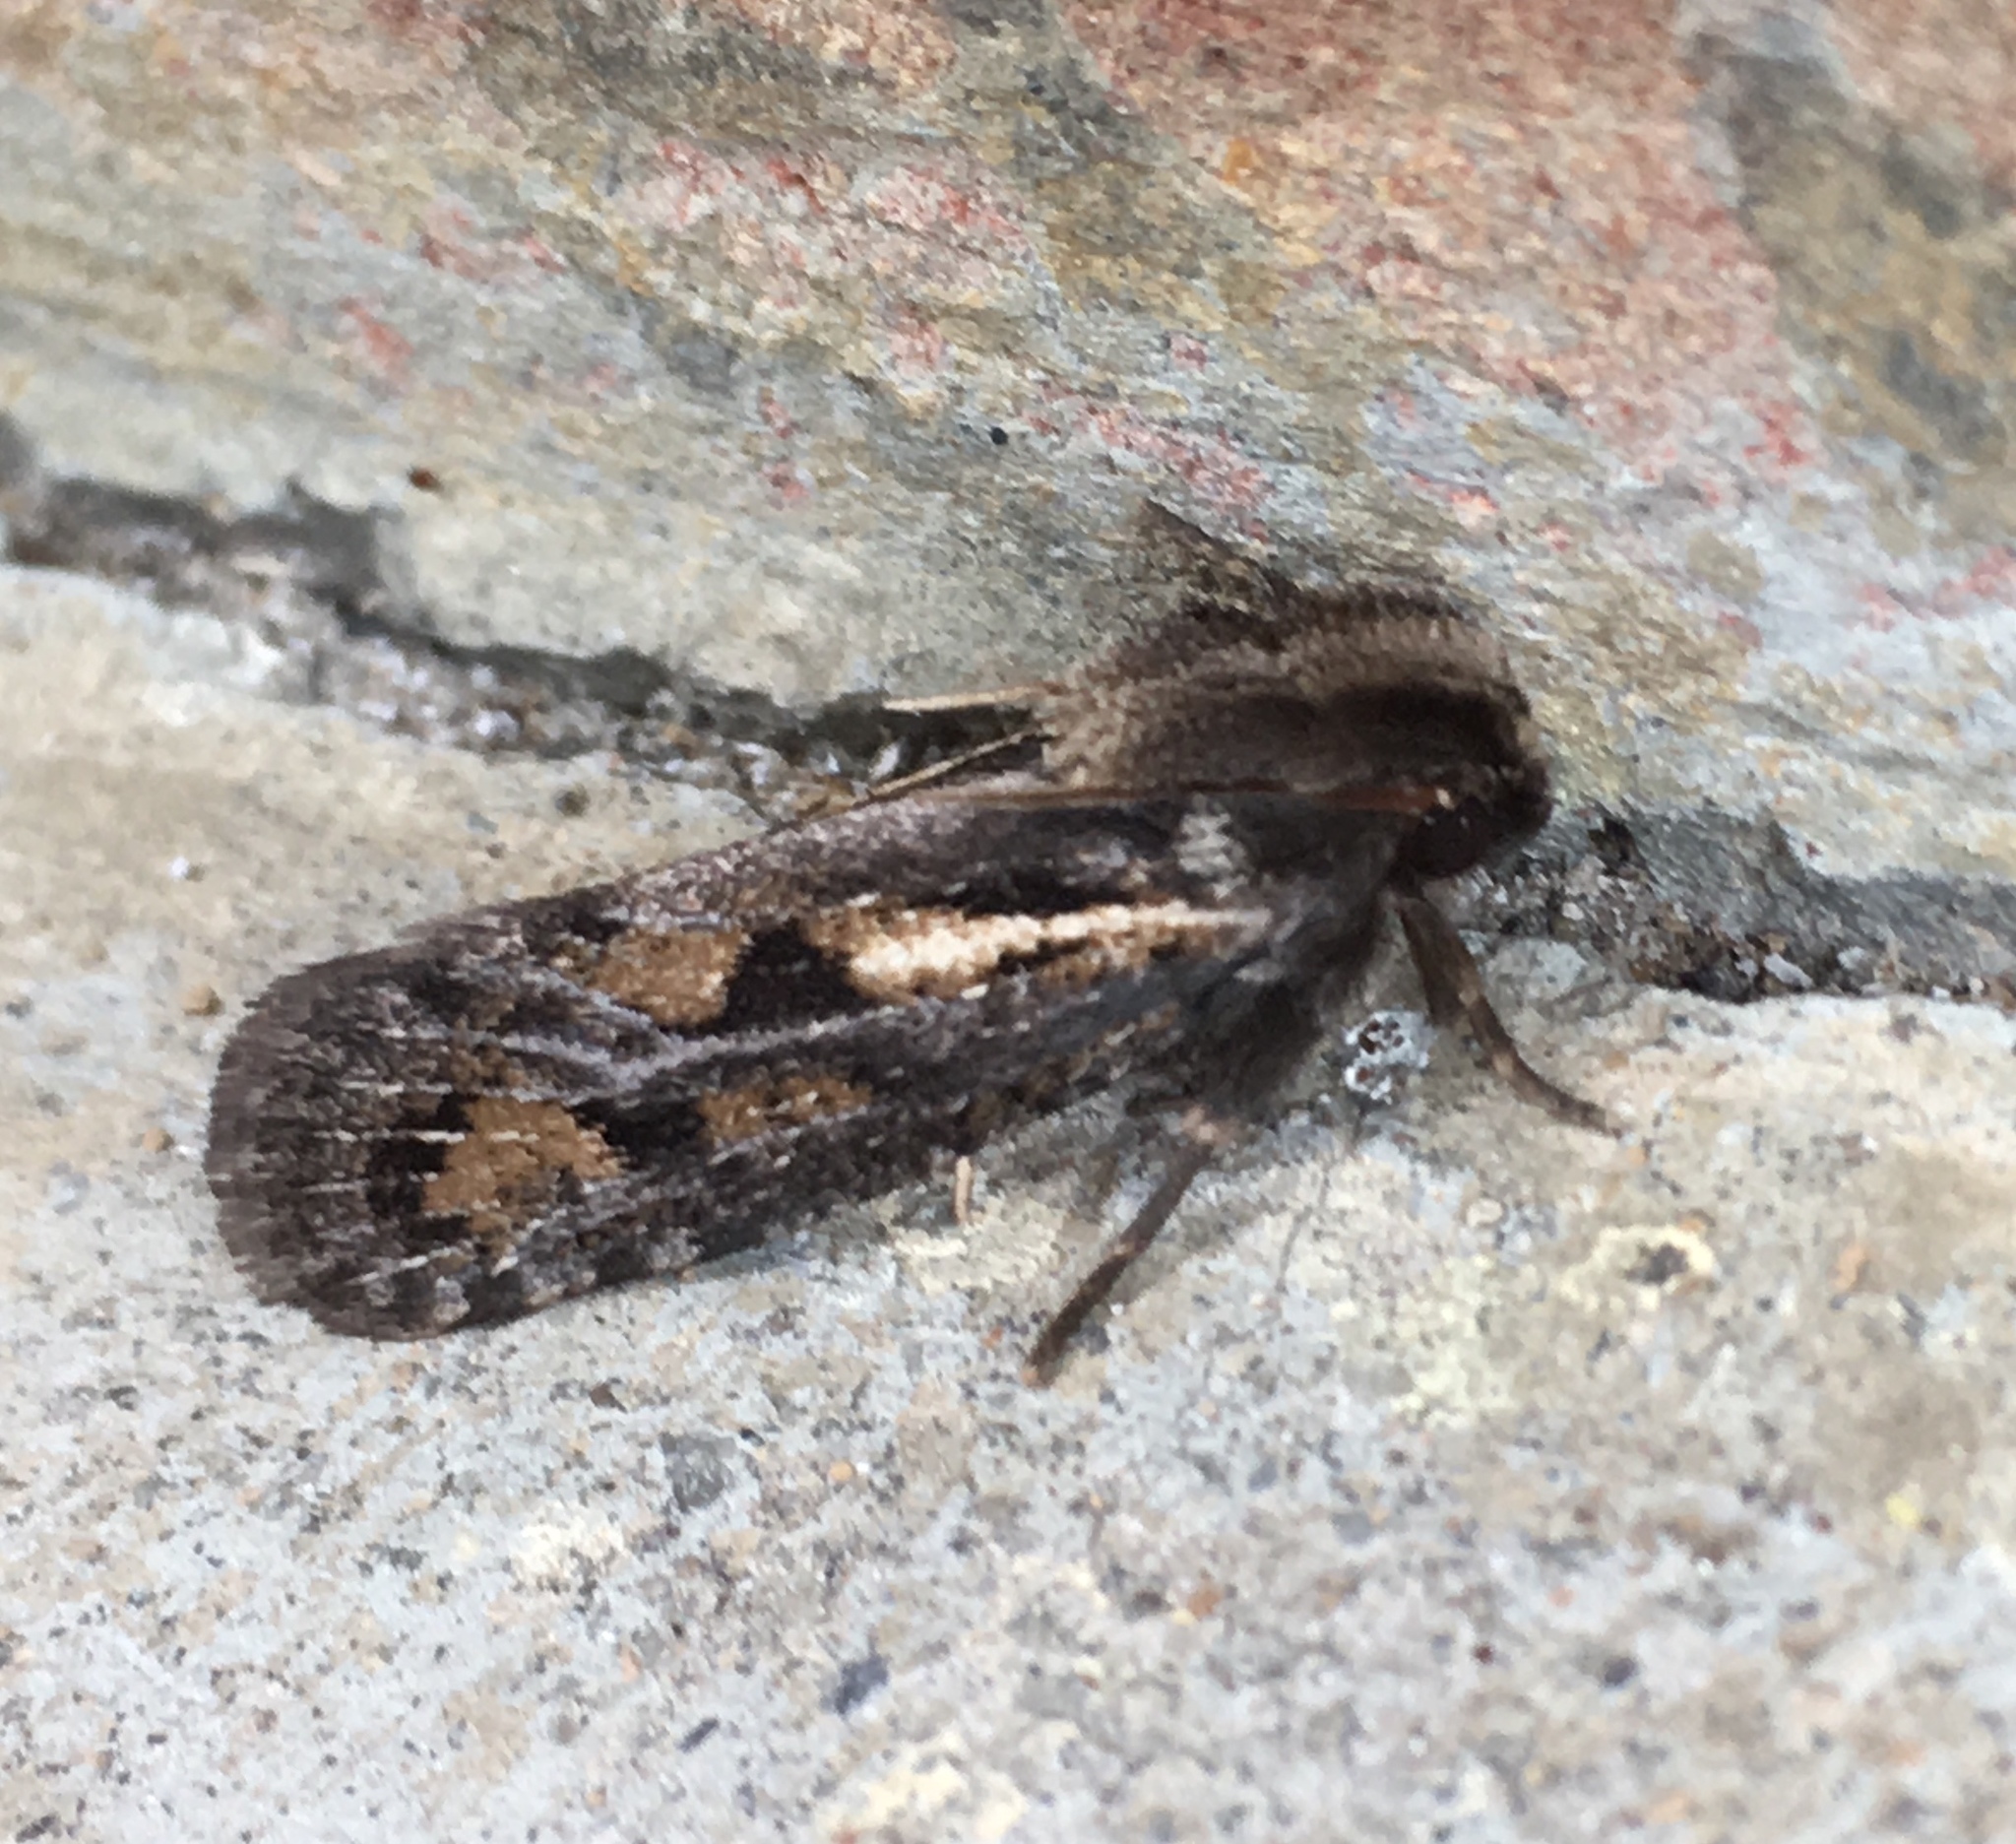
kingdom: Animalia
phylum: Arthropoda
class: Insecta
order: Lepidoptera
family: Tineidae
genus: Acrolophus
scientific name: Acrolophus popeanella
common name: Clemens' grass tubeworm moth
